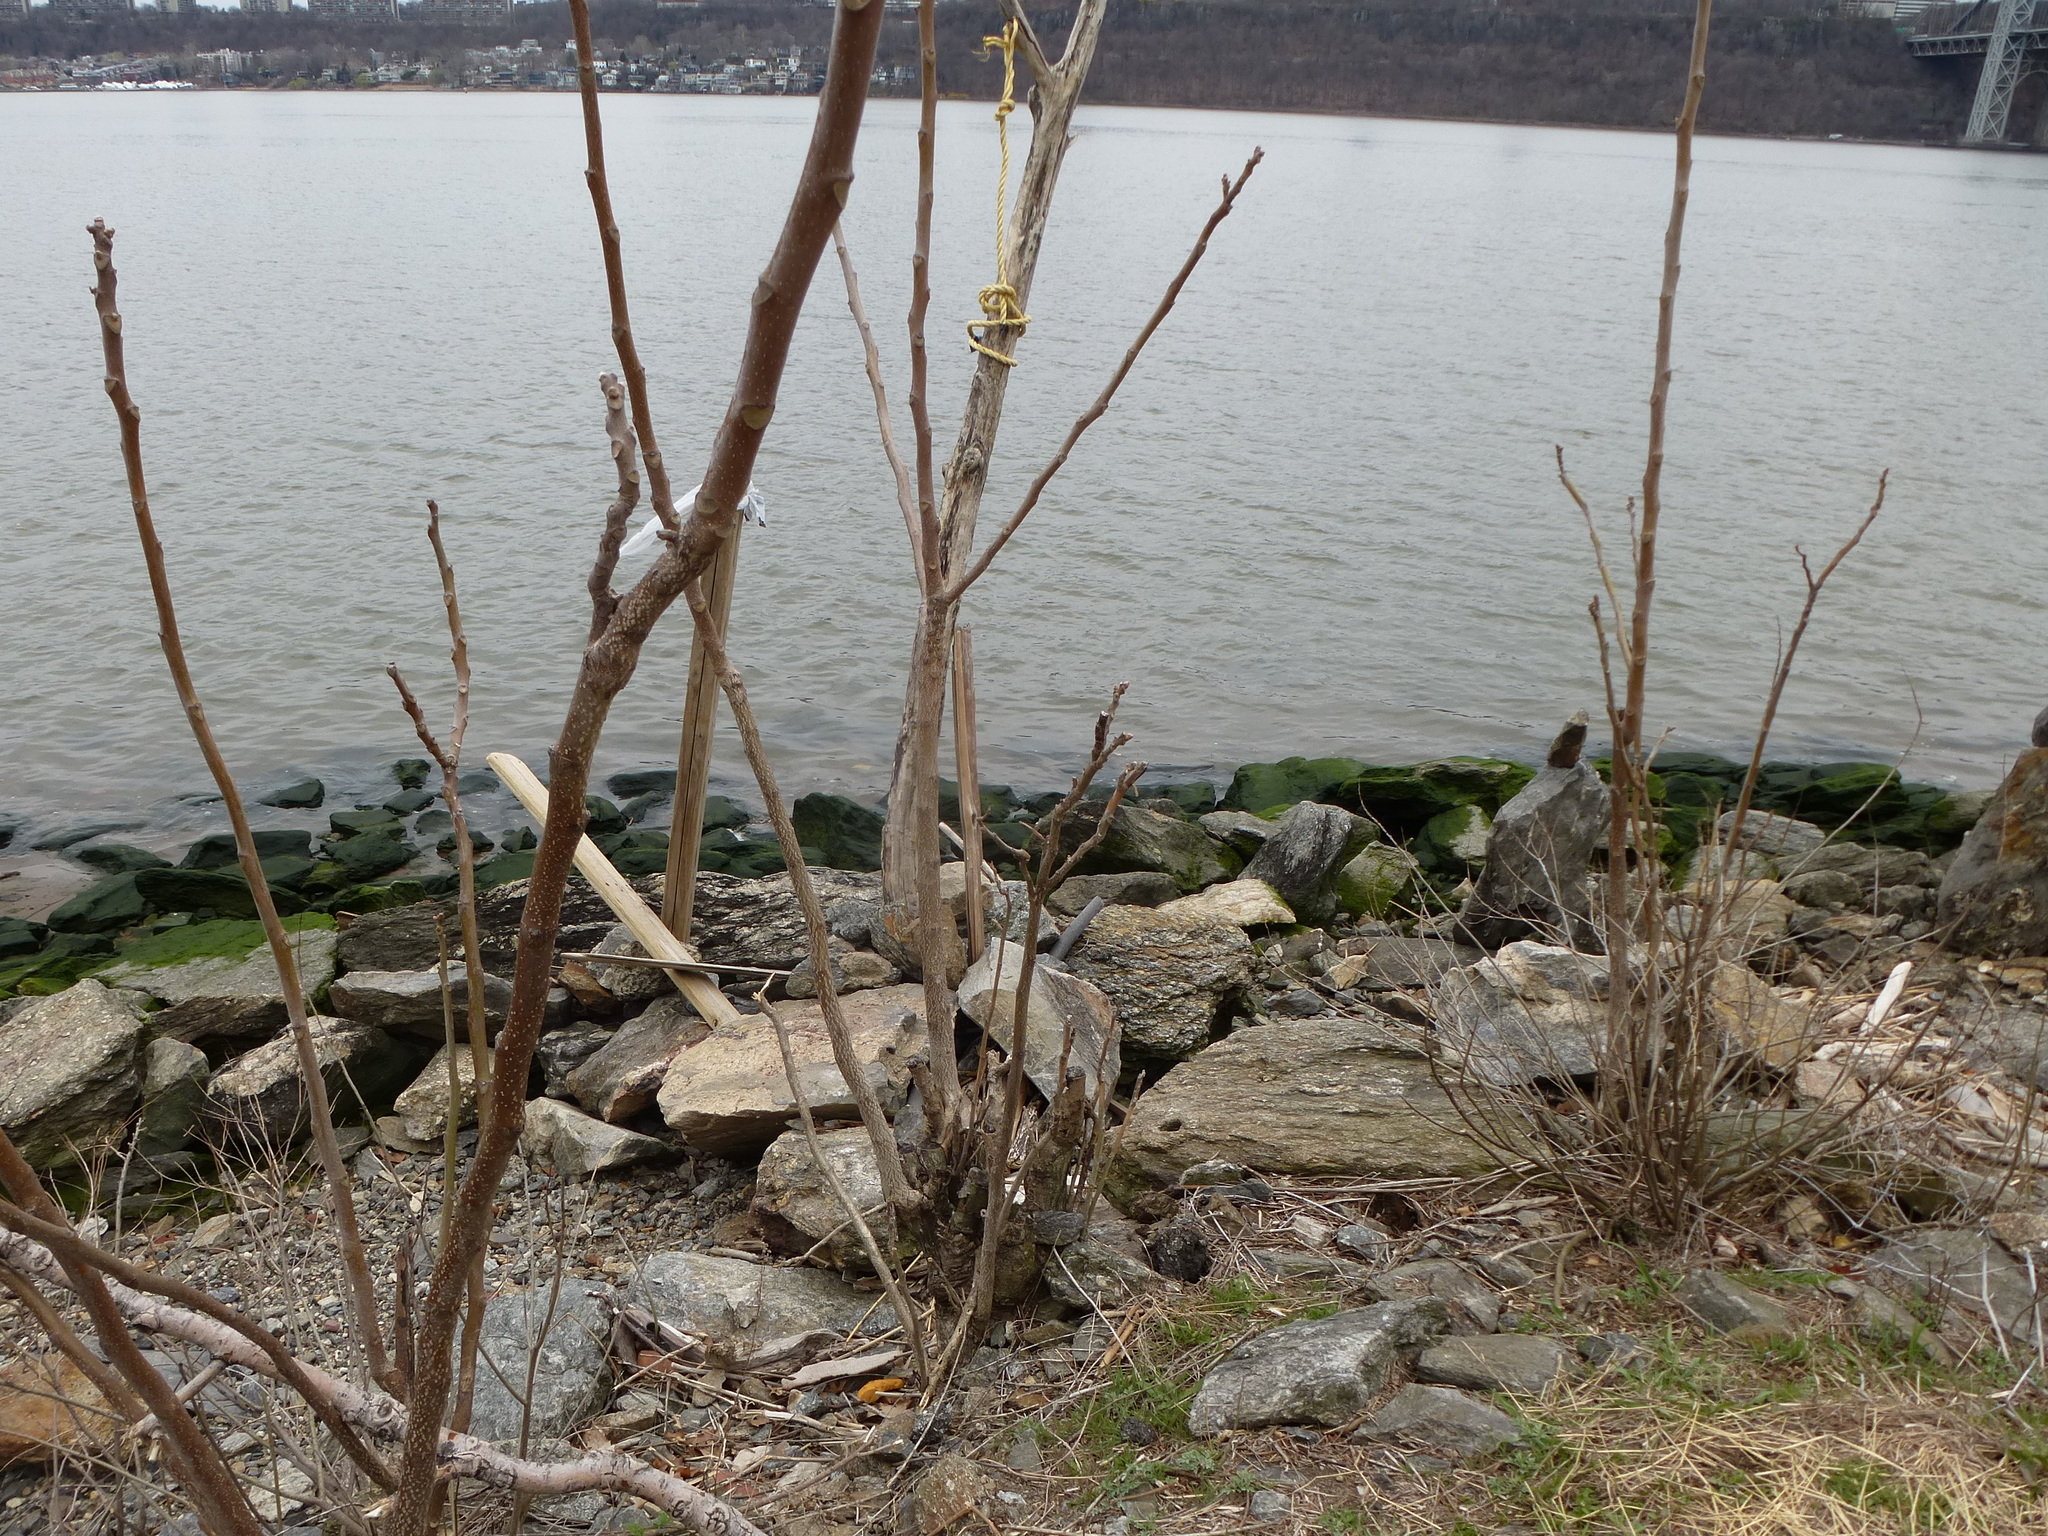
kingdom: Plantae
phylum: Tracheophyta
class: Magnoliopsida
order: Sapindales
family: Simaroubaceae
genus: Ailanthus
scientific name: Ailanthus altissima
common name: Tree-of-heaven
